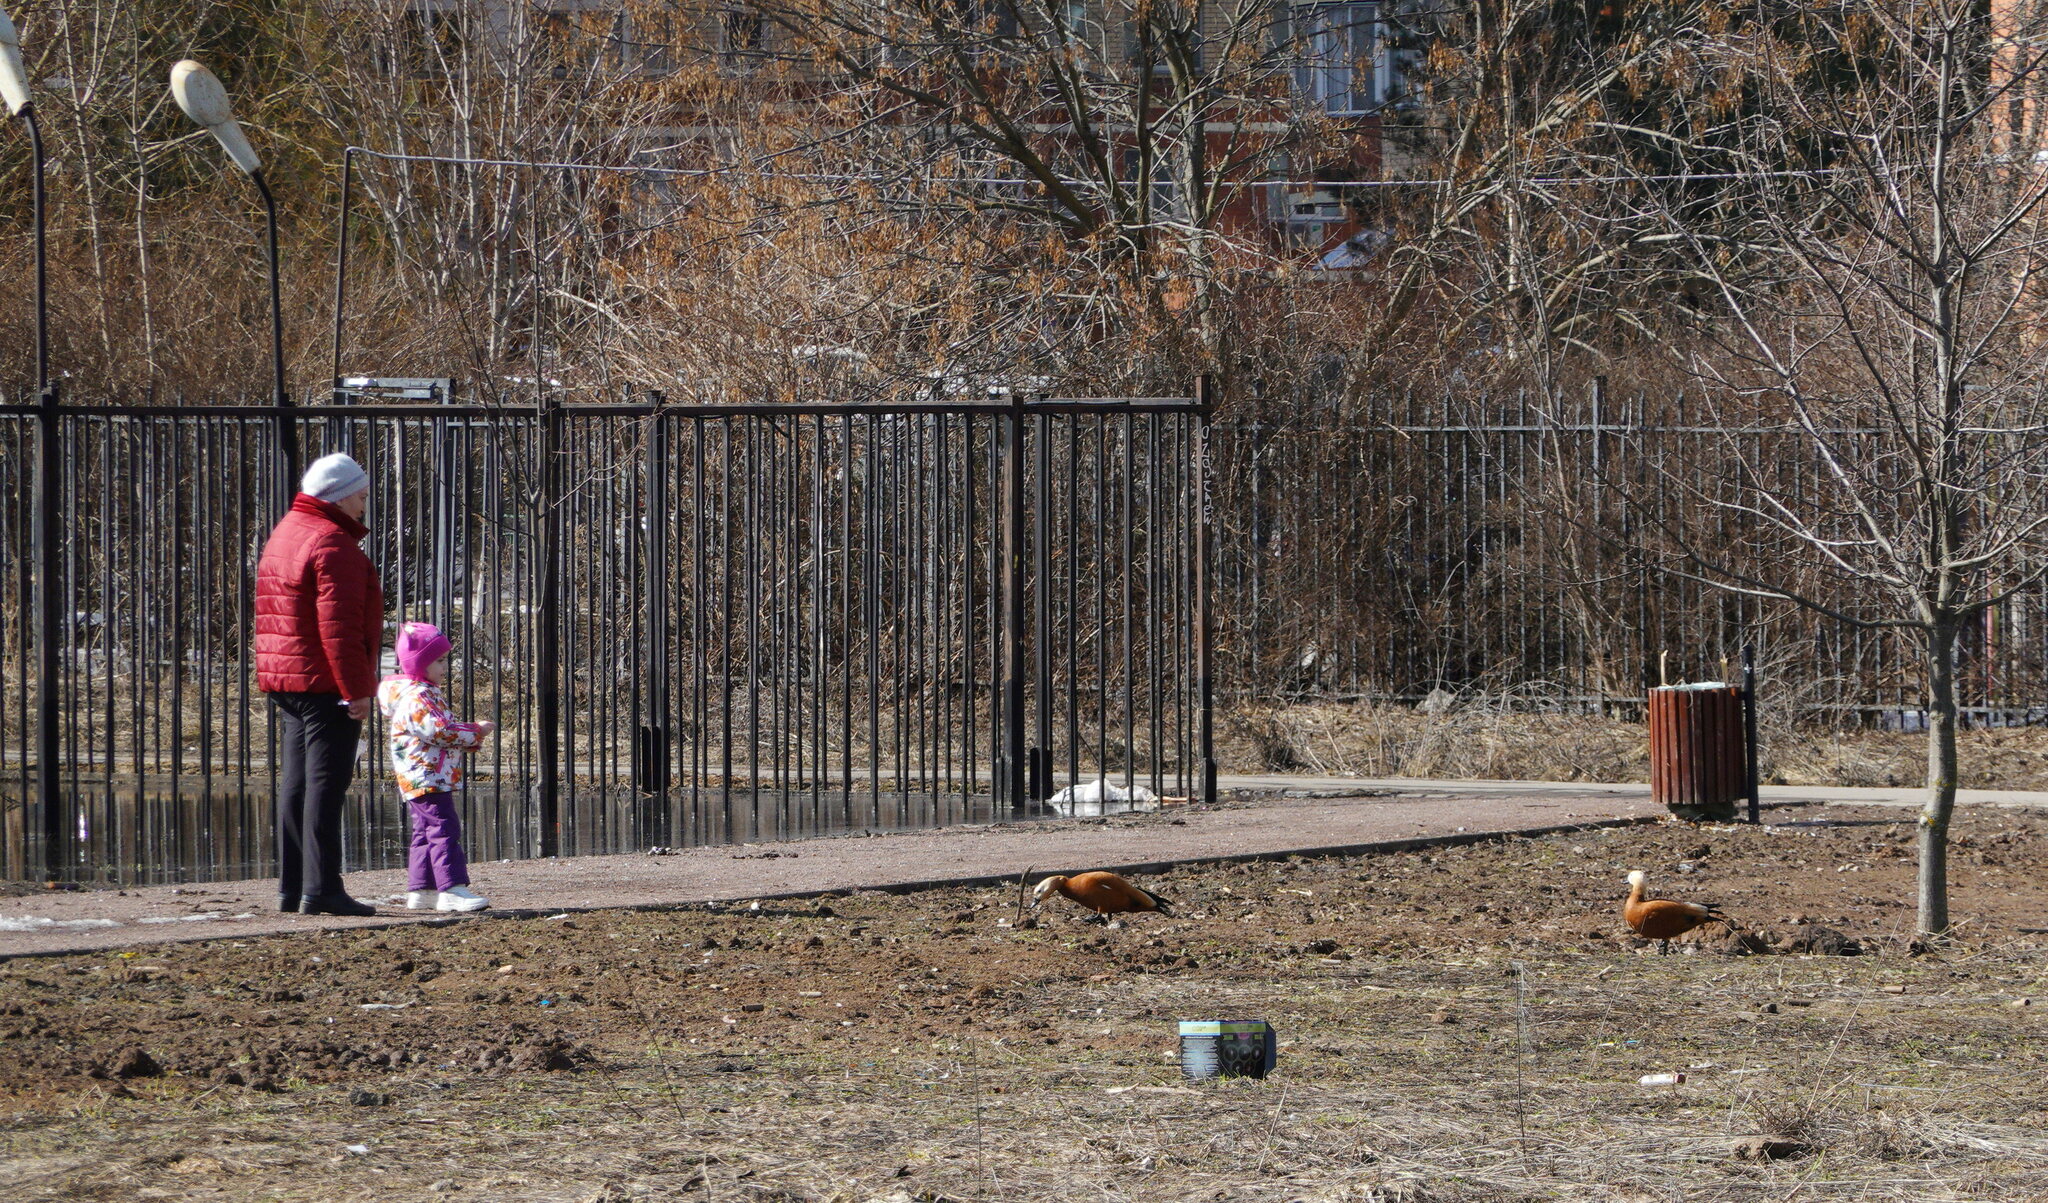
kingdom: Animalia
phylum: Chordata
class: Aves
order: Anseriformes
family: Anatidae
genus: Tadorna
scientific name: Tadorna ferruginea
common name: Ruddy shelduck
